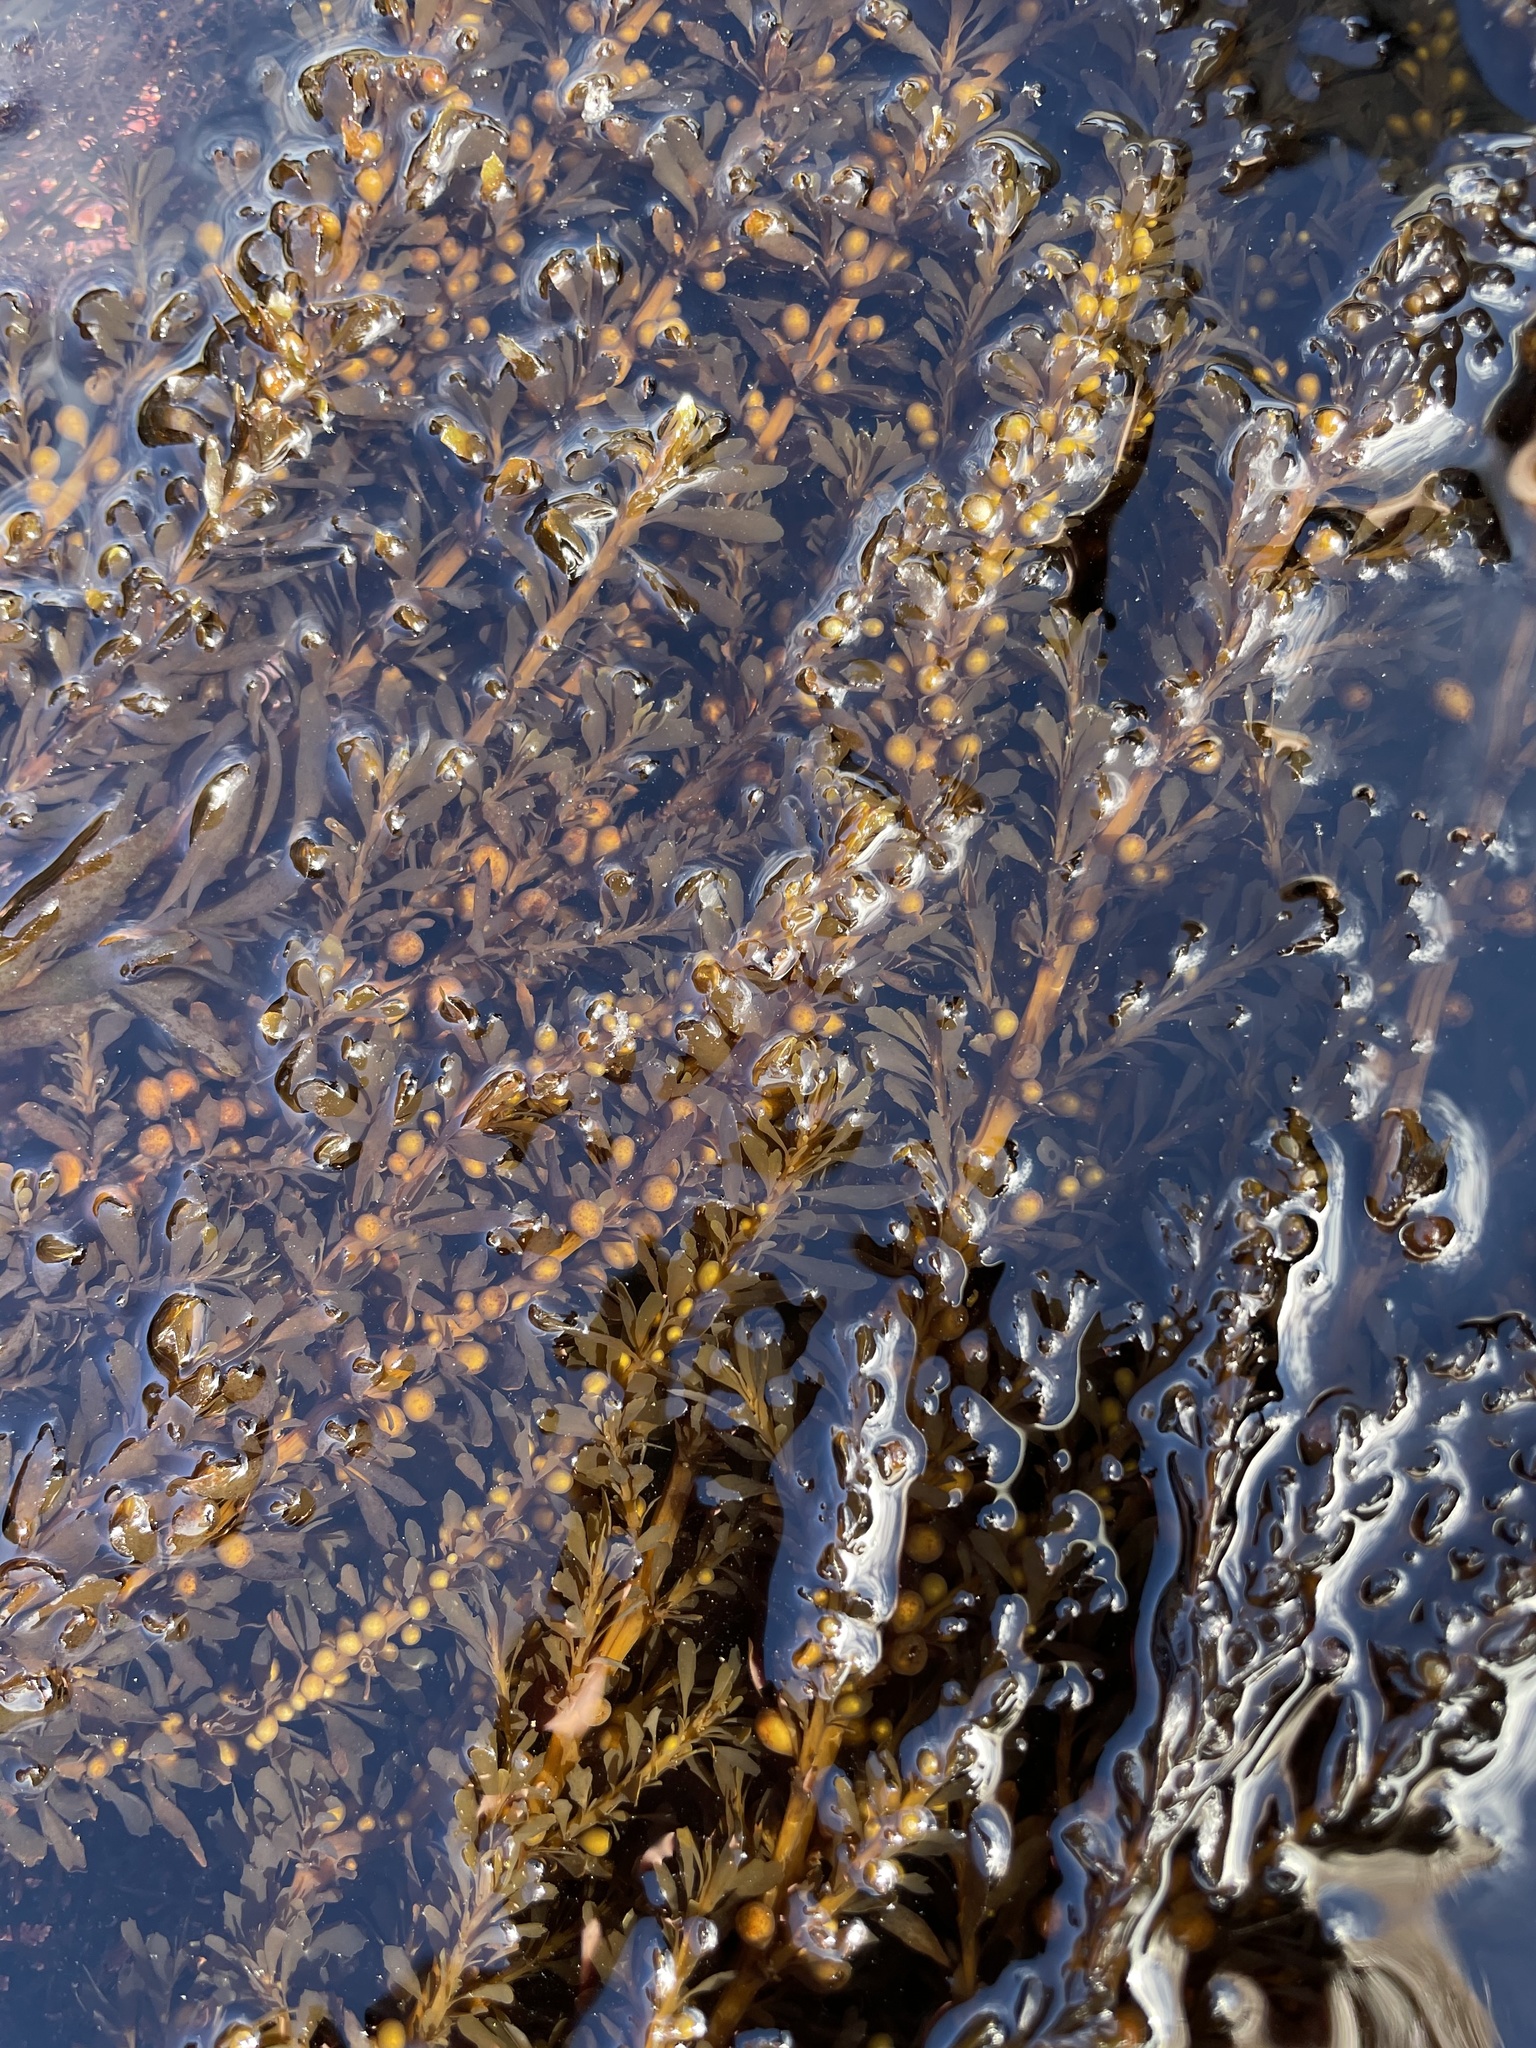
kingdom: Chromista
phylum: Ochrophyta
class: Phaeophyceae
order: Fucales
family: Sargassaceae
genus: Sargassum
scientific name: Sargassum muticum
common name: Japweed
